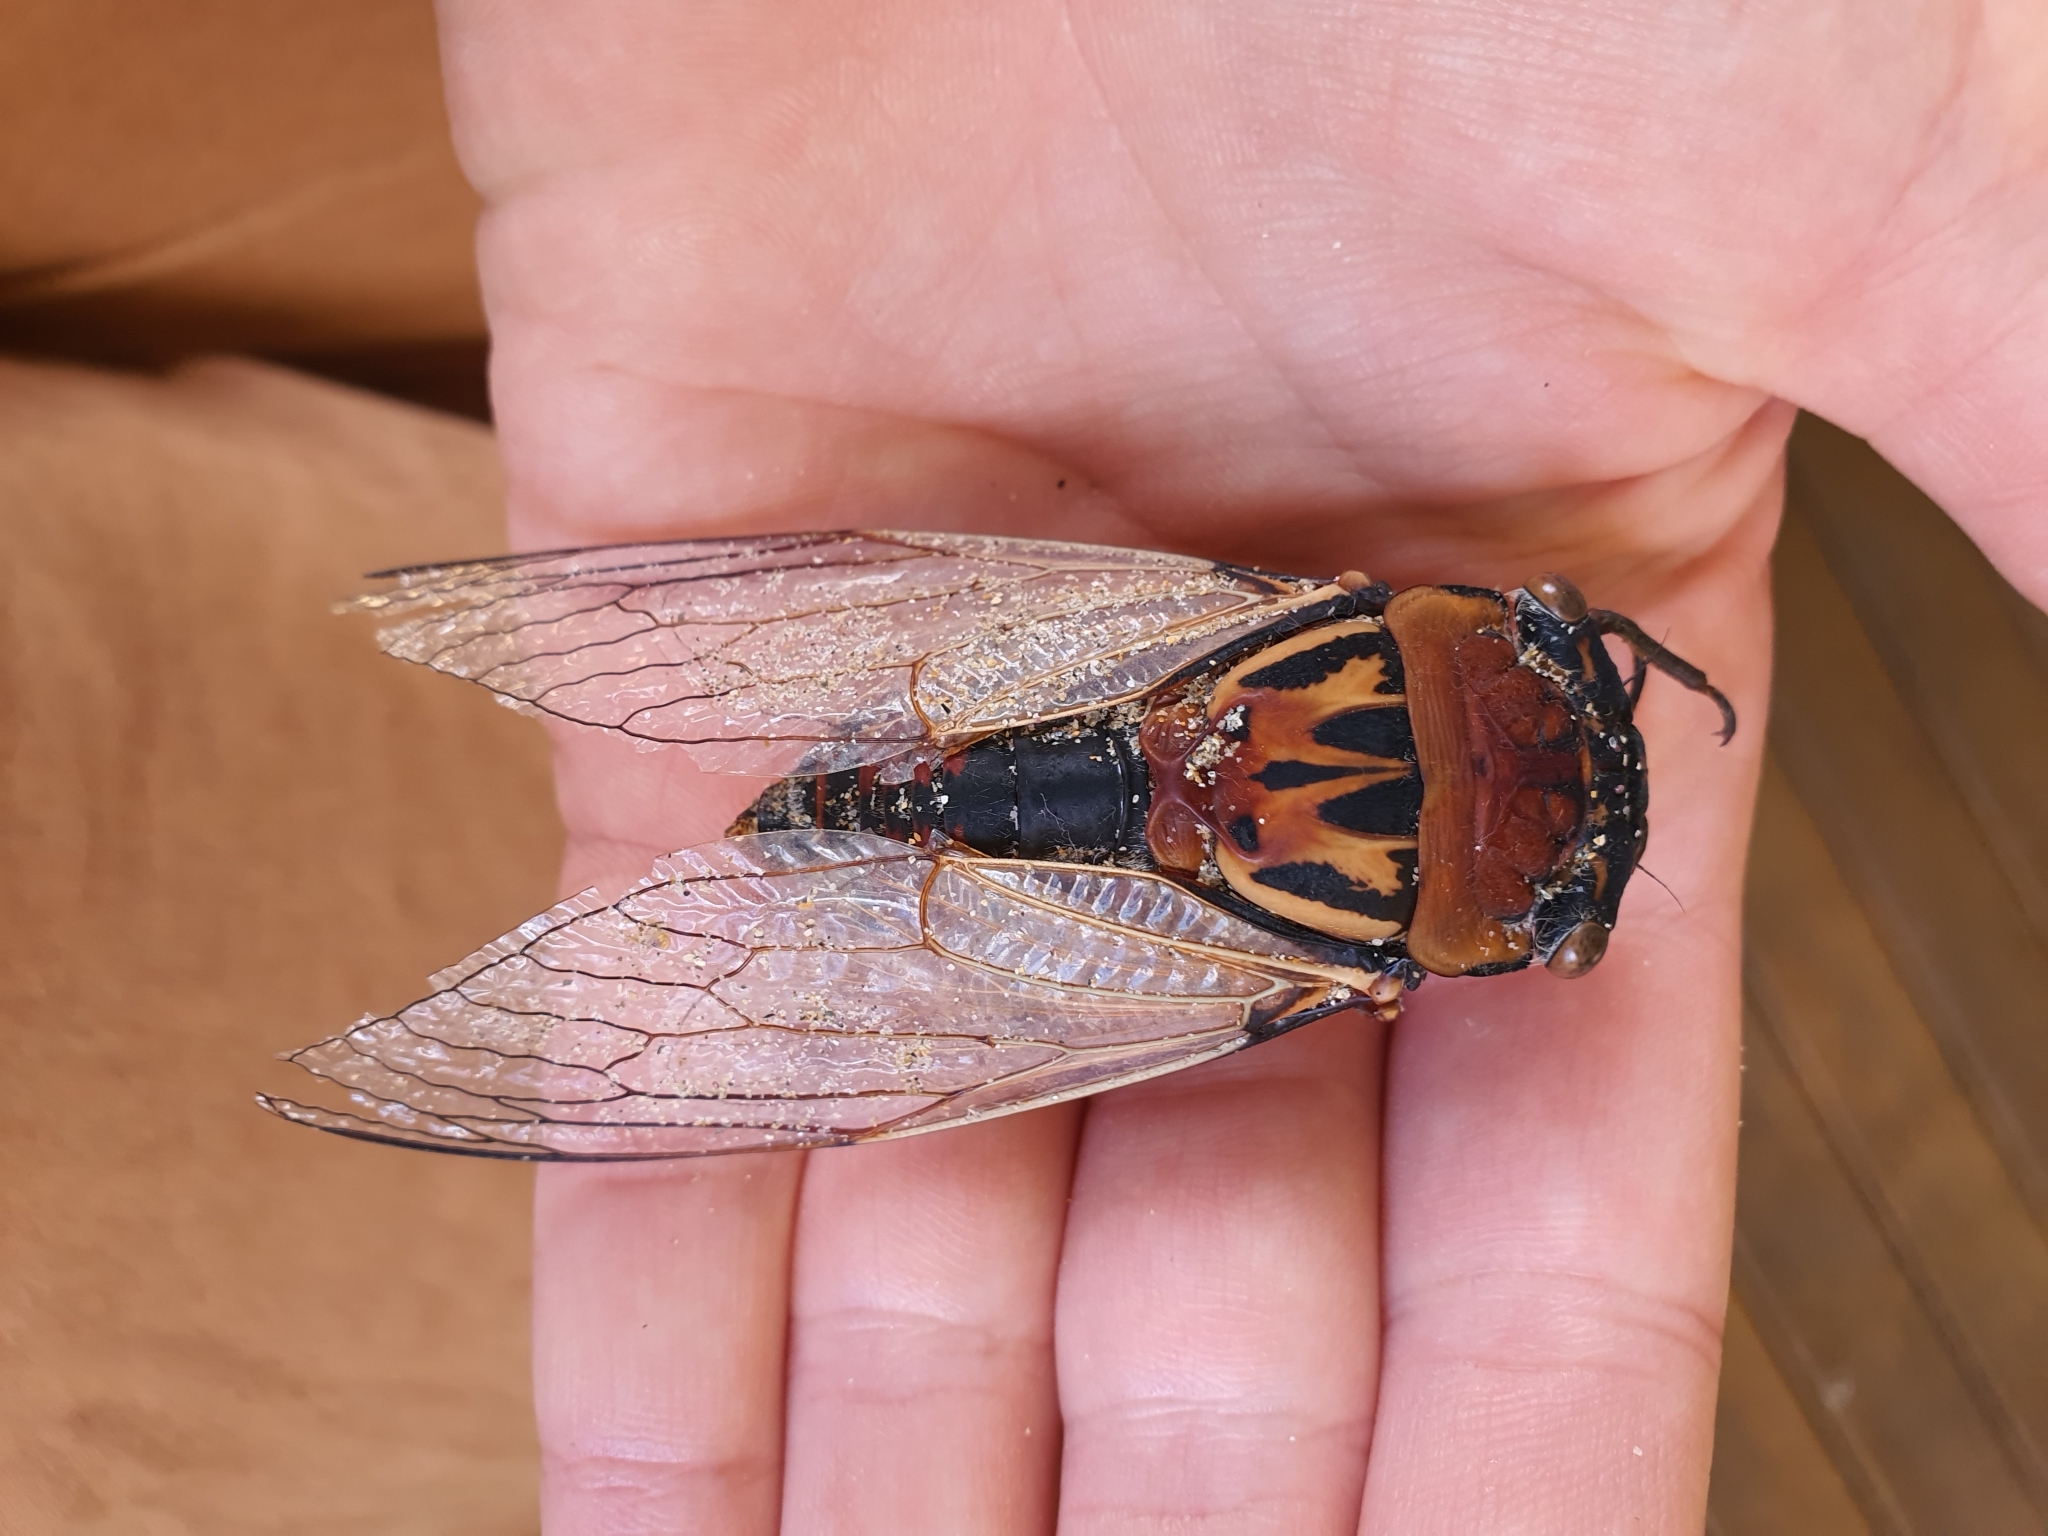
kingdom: Animalia
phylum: Arthropoda
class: Insecta
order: Hemiptera
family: Cicadidae
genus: Thopha
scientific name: Thopha saccata
